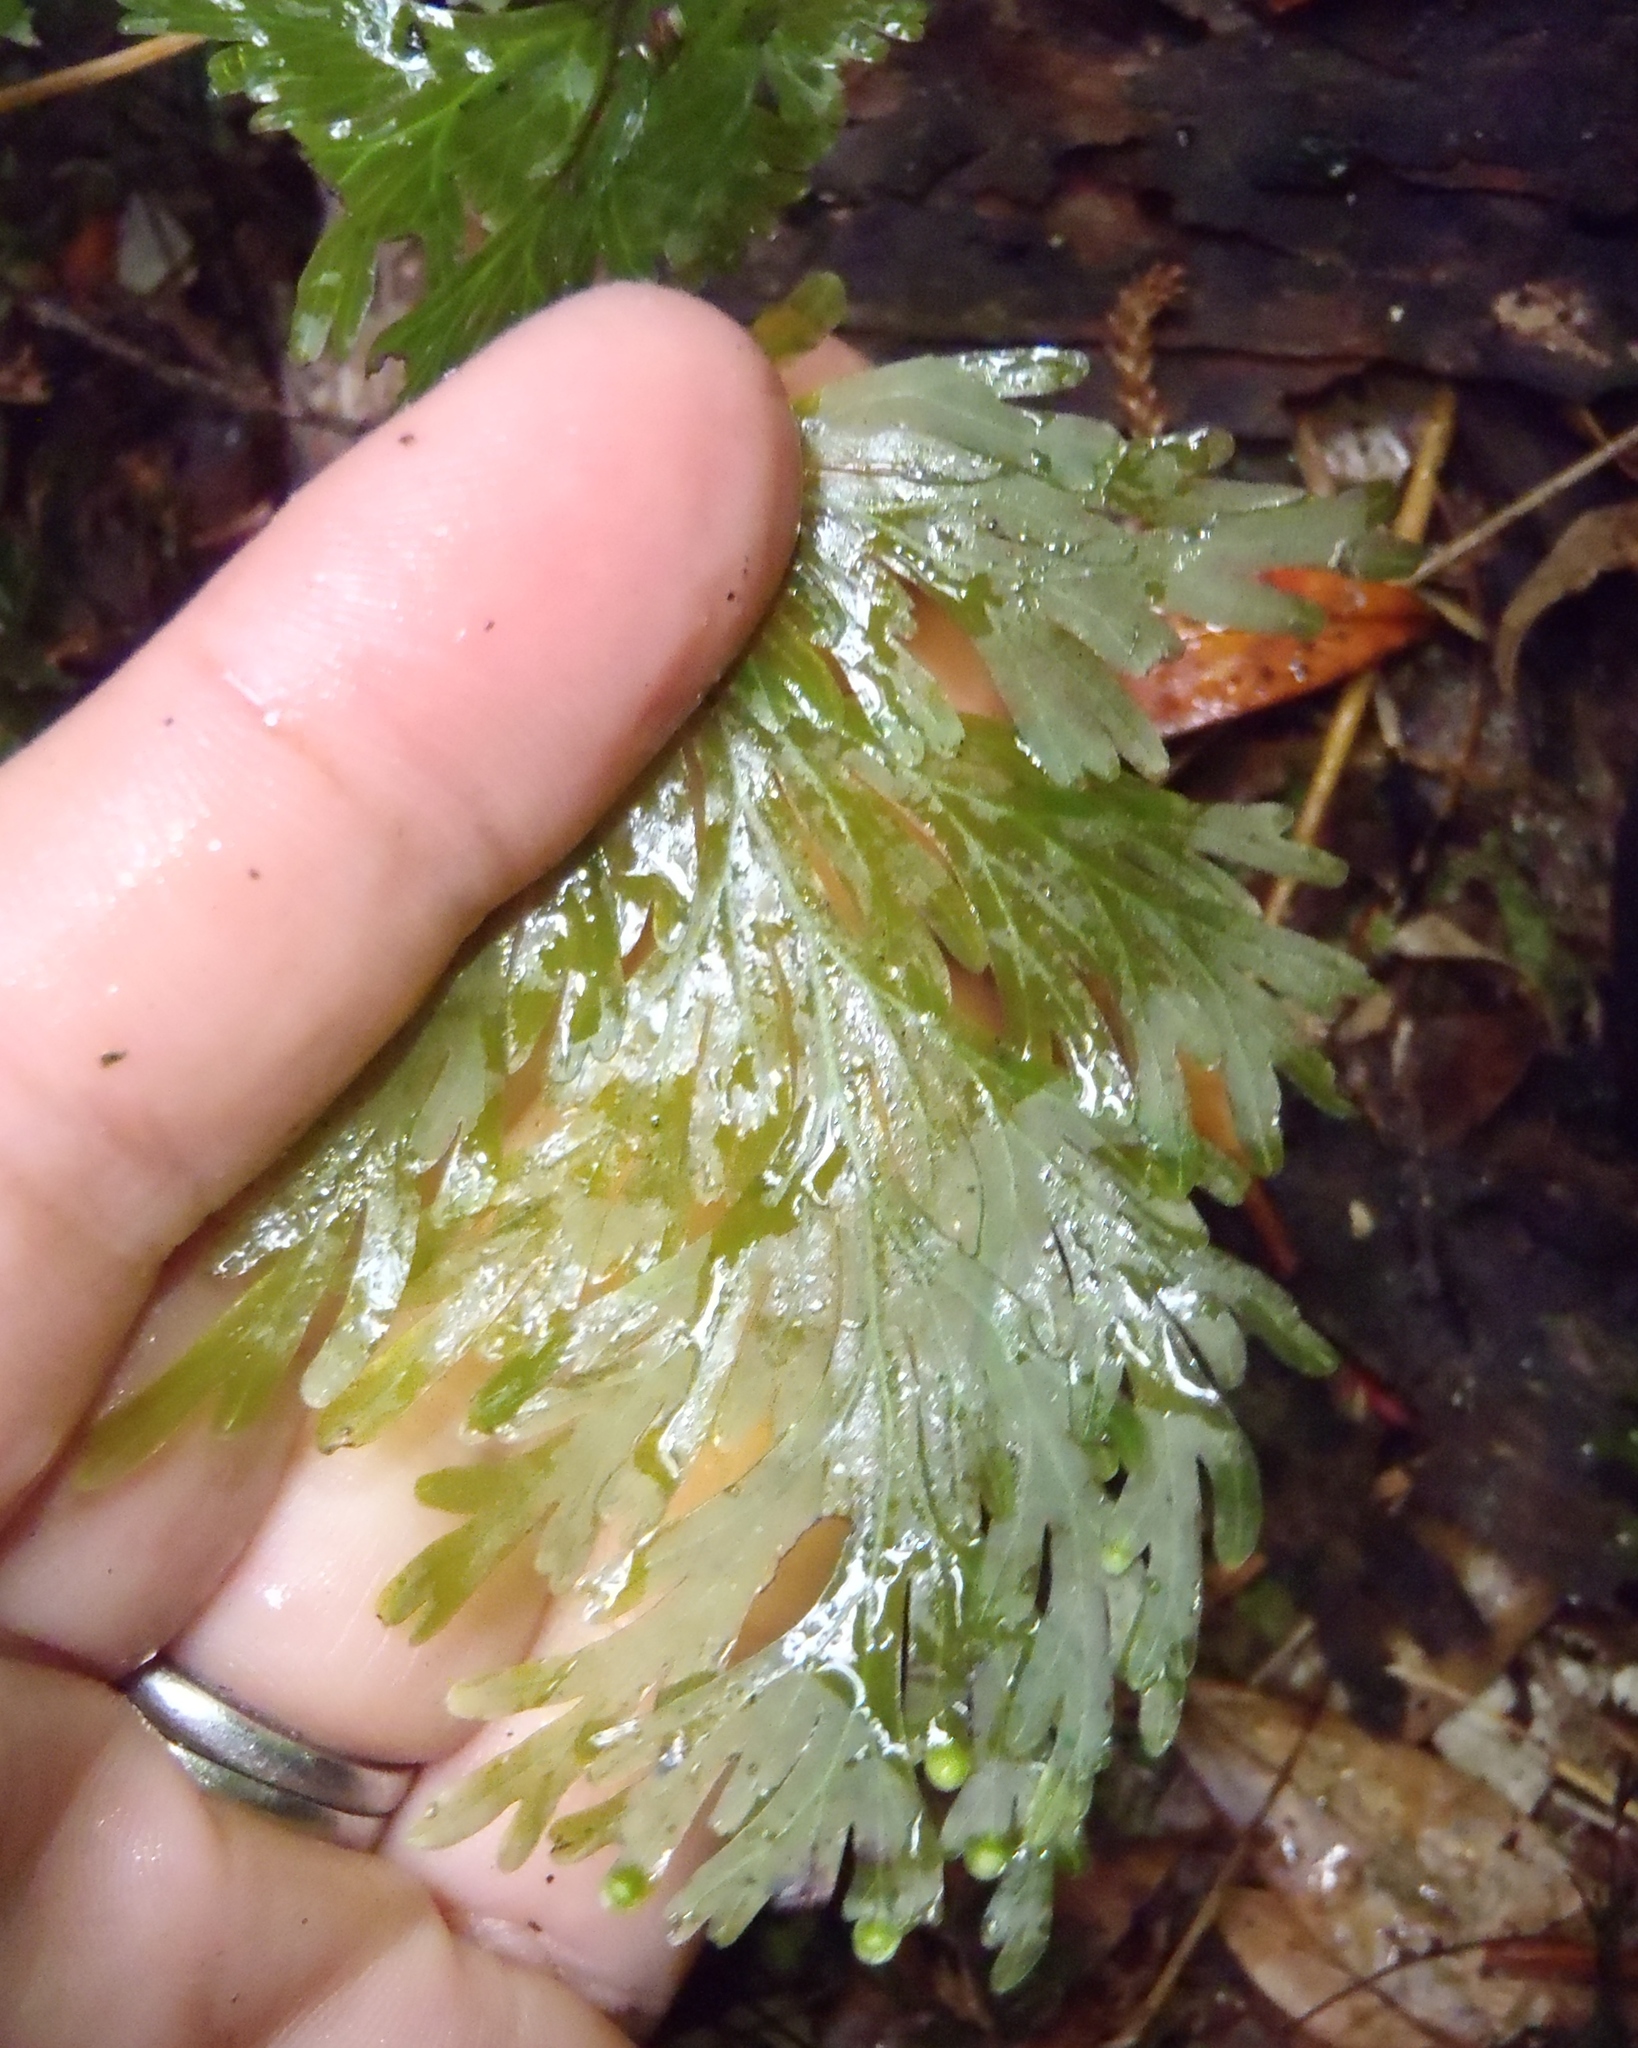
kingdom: Plantae
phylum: Tracheophyta
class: Polypodiopsida
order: Hymenophyllales
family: Hymenophyllaceae
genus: Hymenophyllum
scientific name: Hymenophyllum dilatatum
